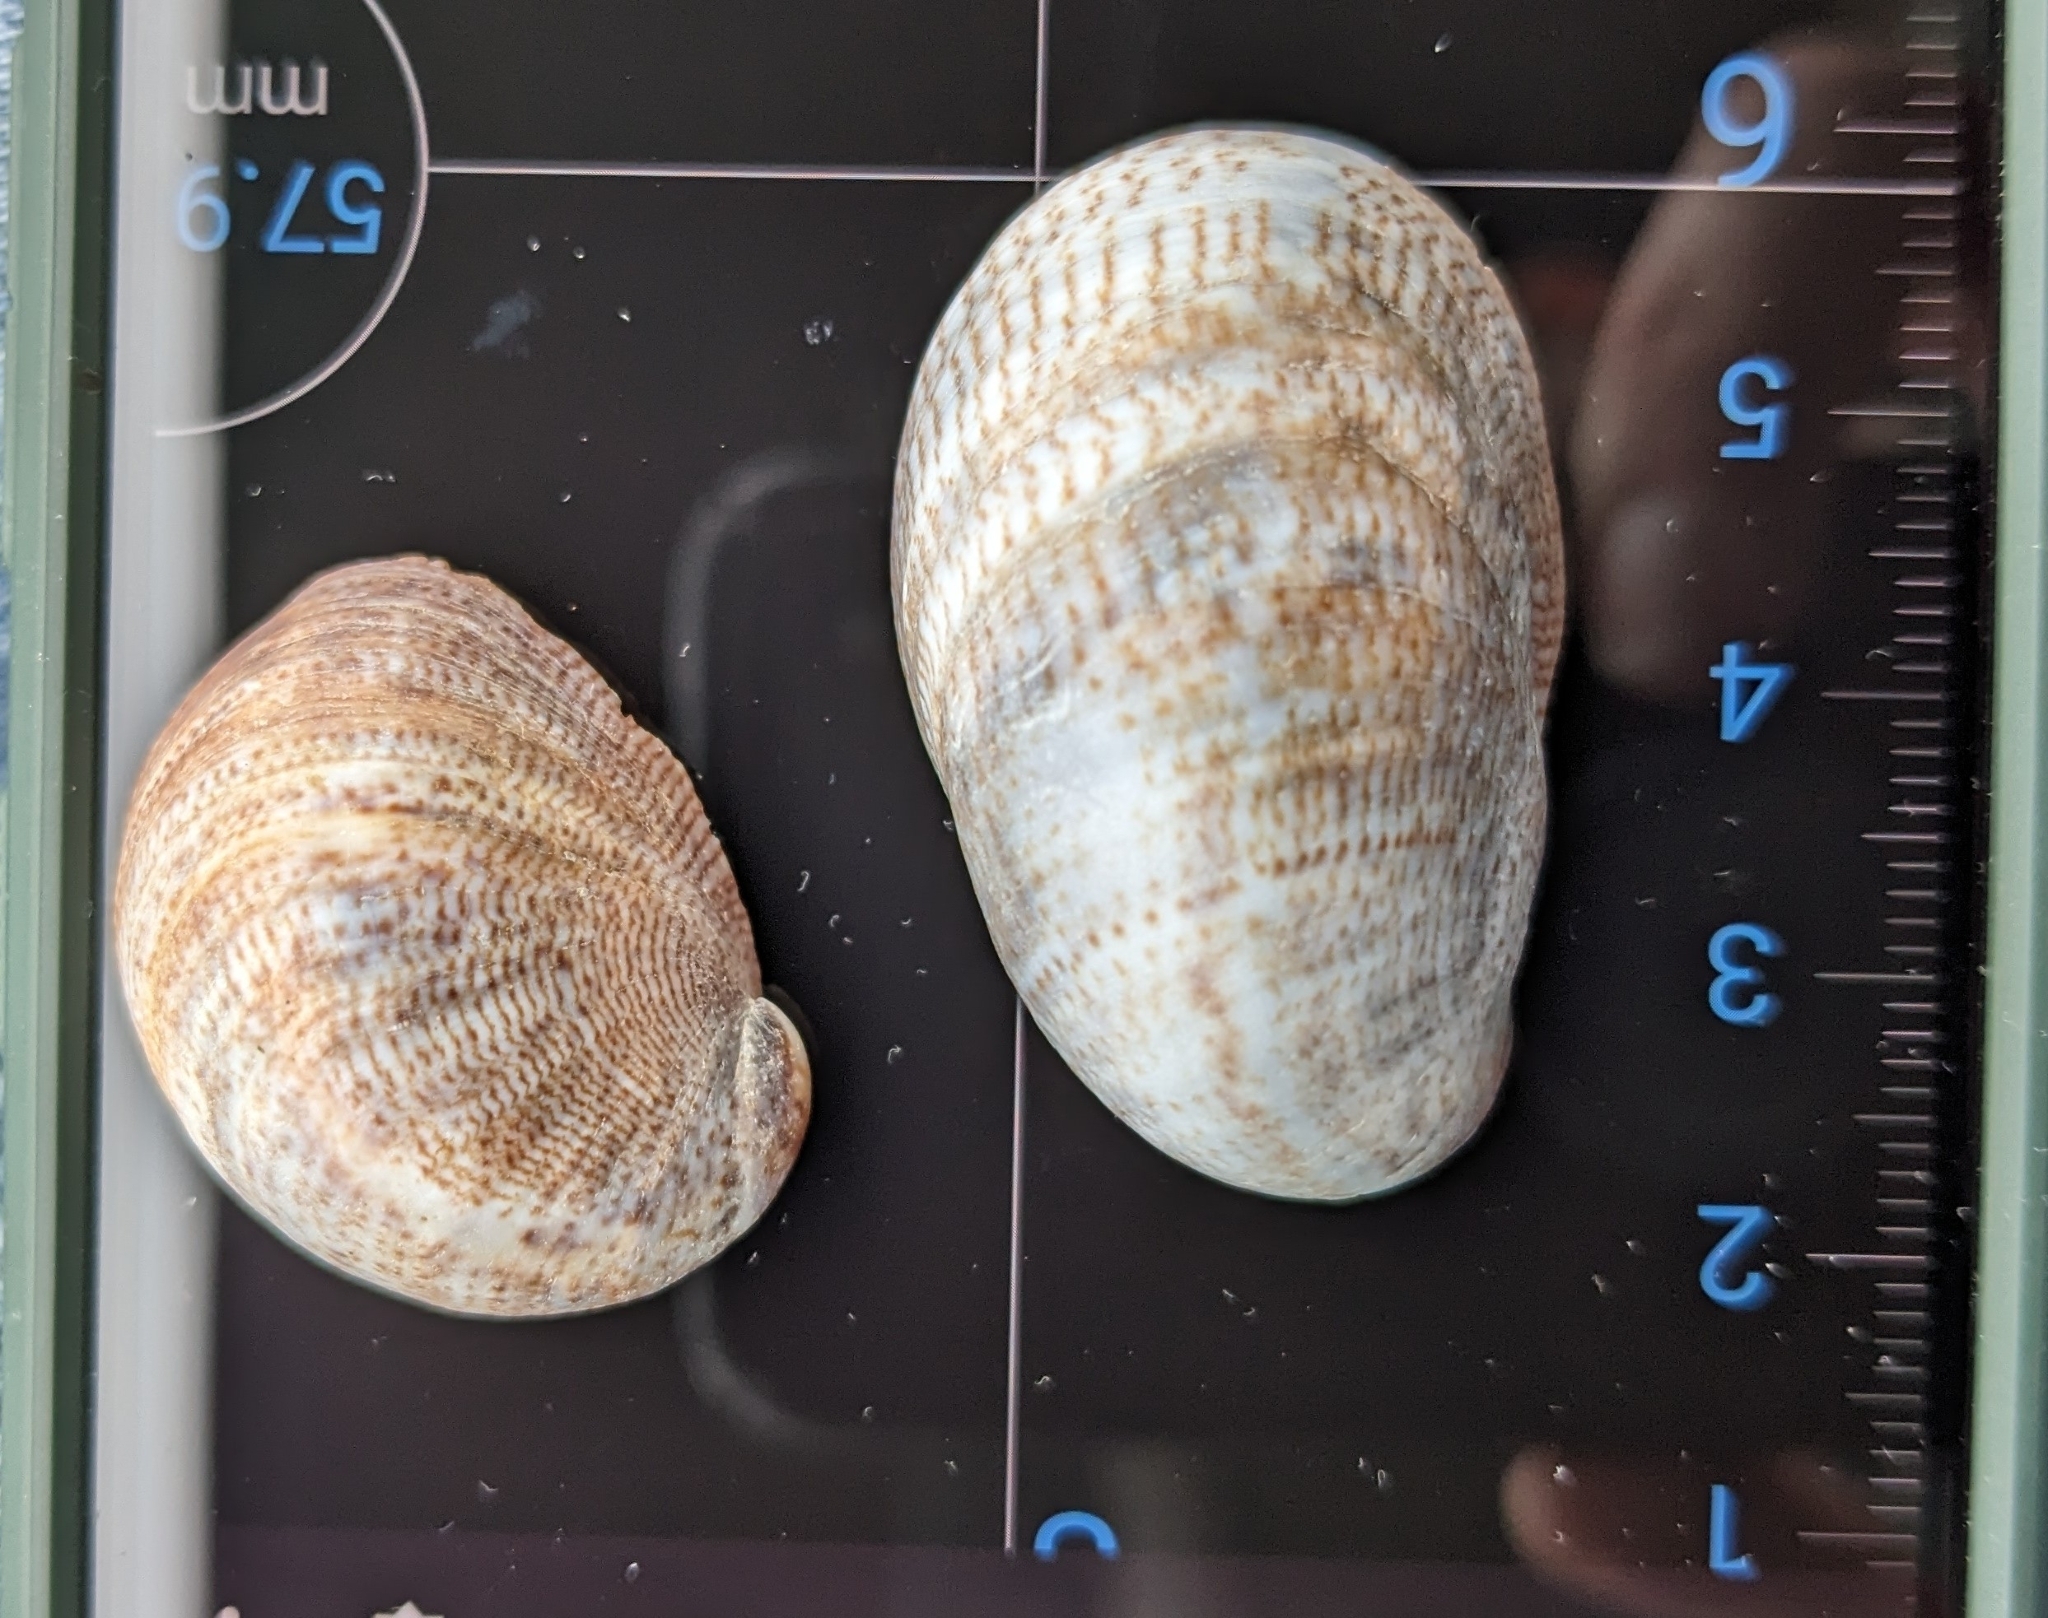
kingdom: Animalia
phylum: Mollusca
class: Gastropoda
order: Littorinimorpha
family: Calyptraeidae
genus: Crepidula
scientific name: Crepidula fornicata
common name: Slipper limpet
